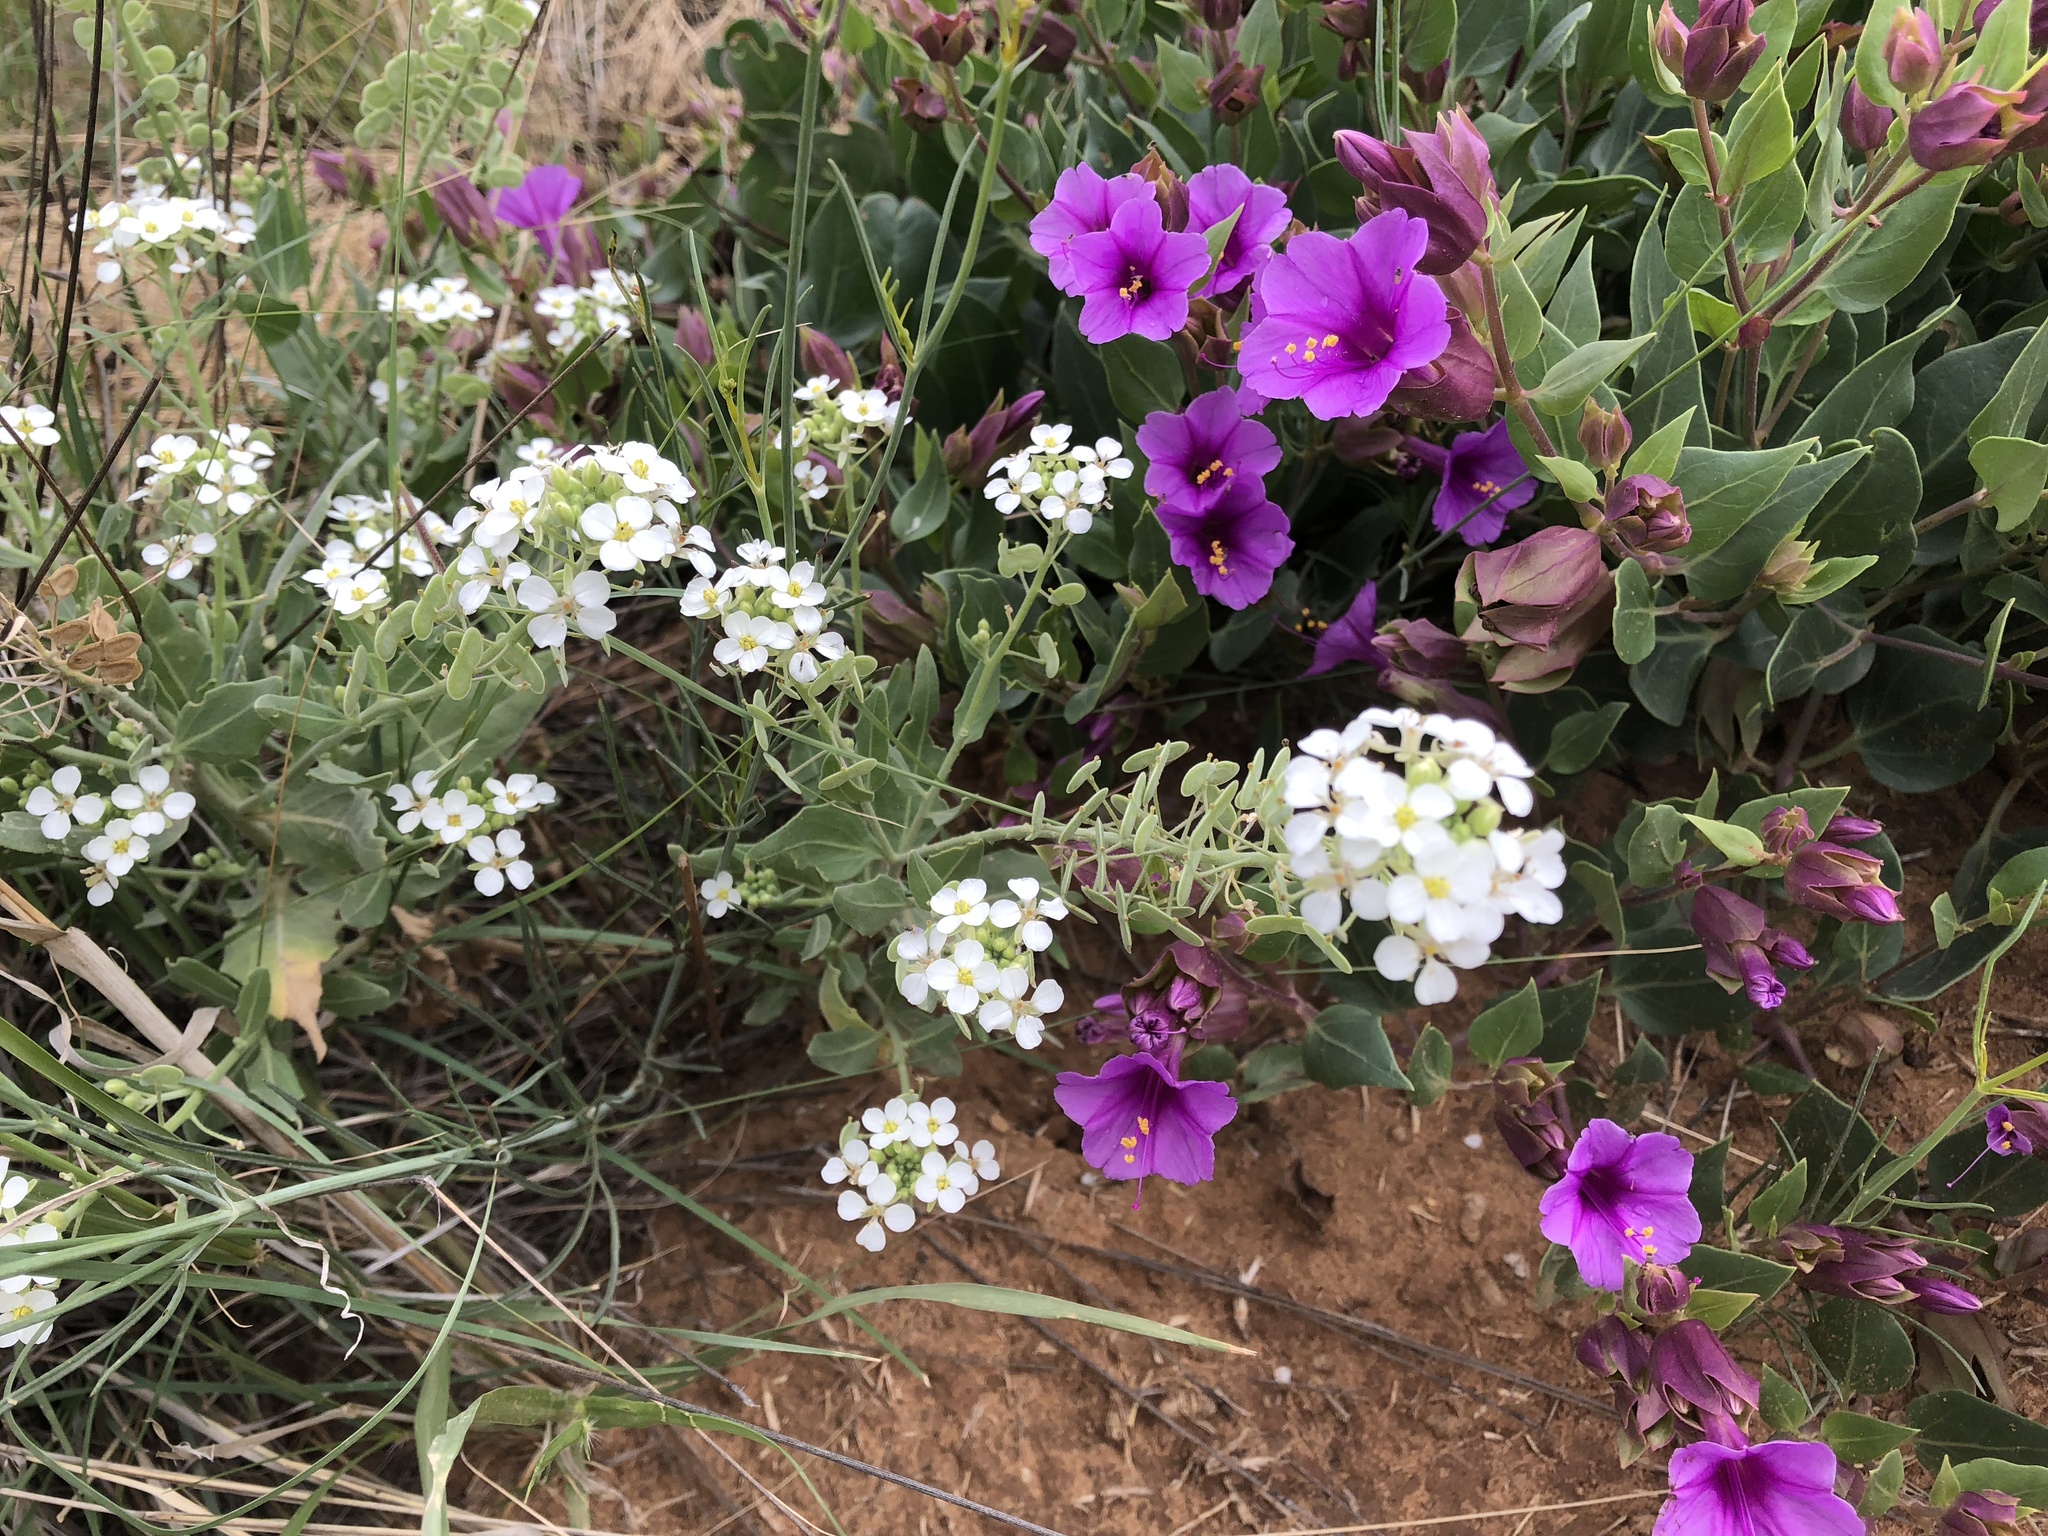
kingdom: Plantae
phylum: Tracheophyta
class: Magnoliopsida
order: Brassicales
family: Brassicaceae
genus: Dimorphocarpa
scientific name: Dimorphocarpa wislizenii
